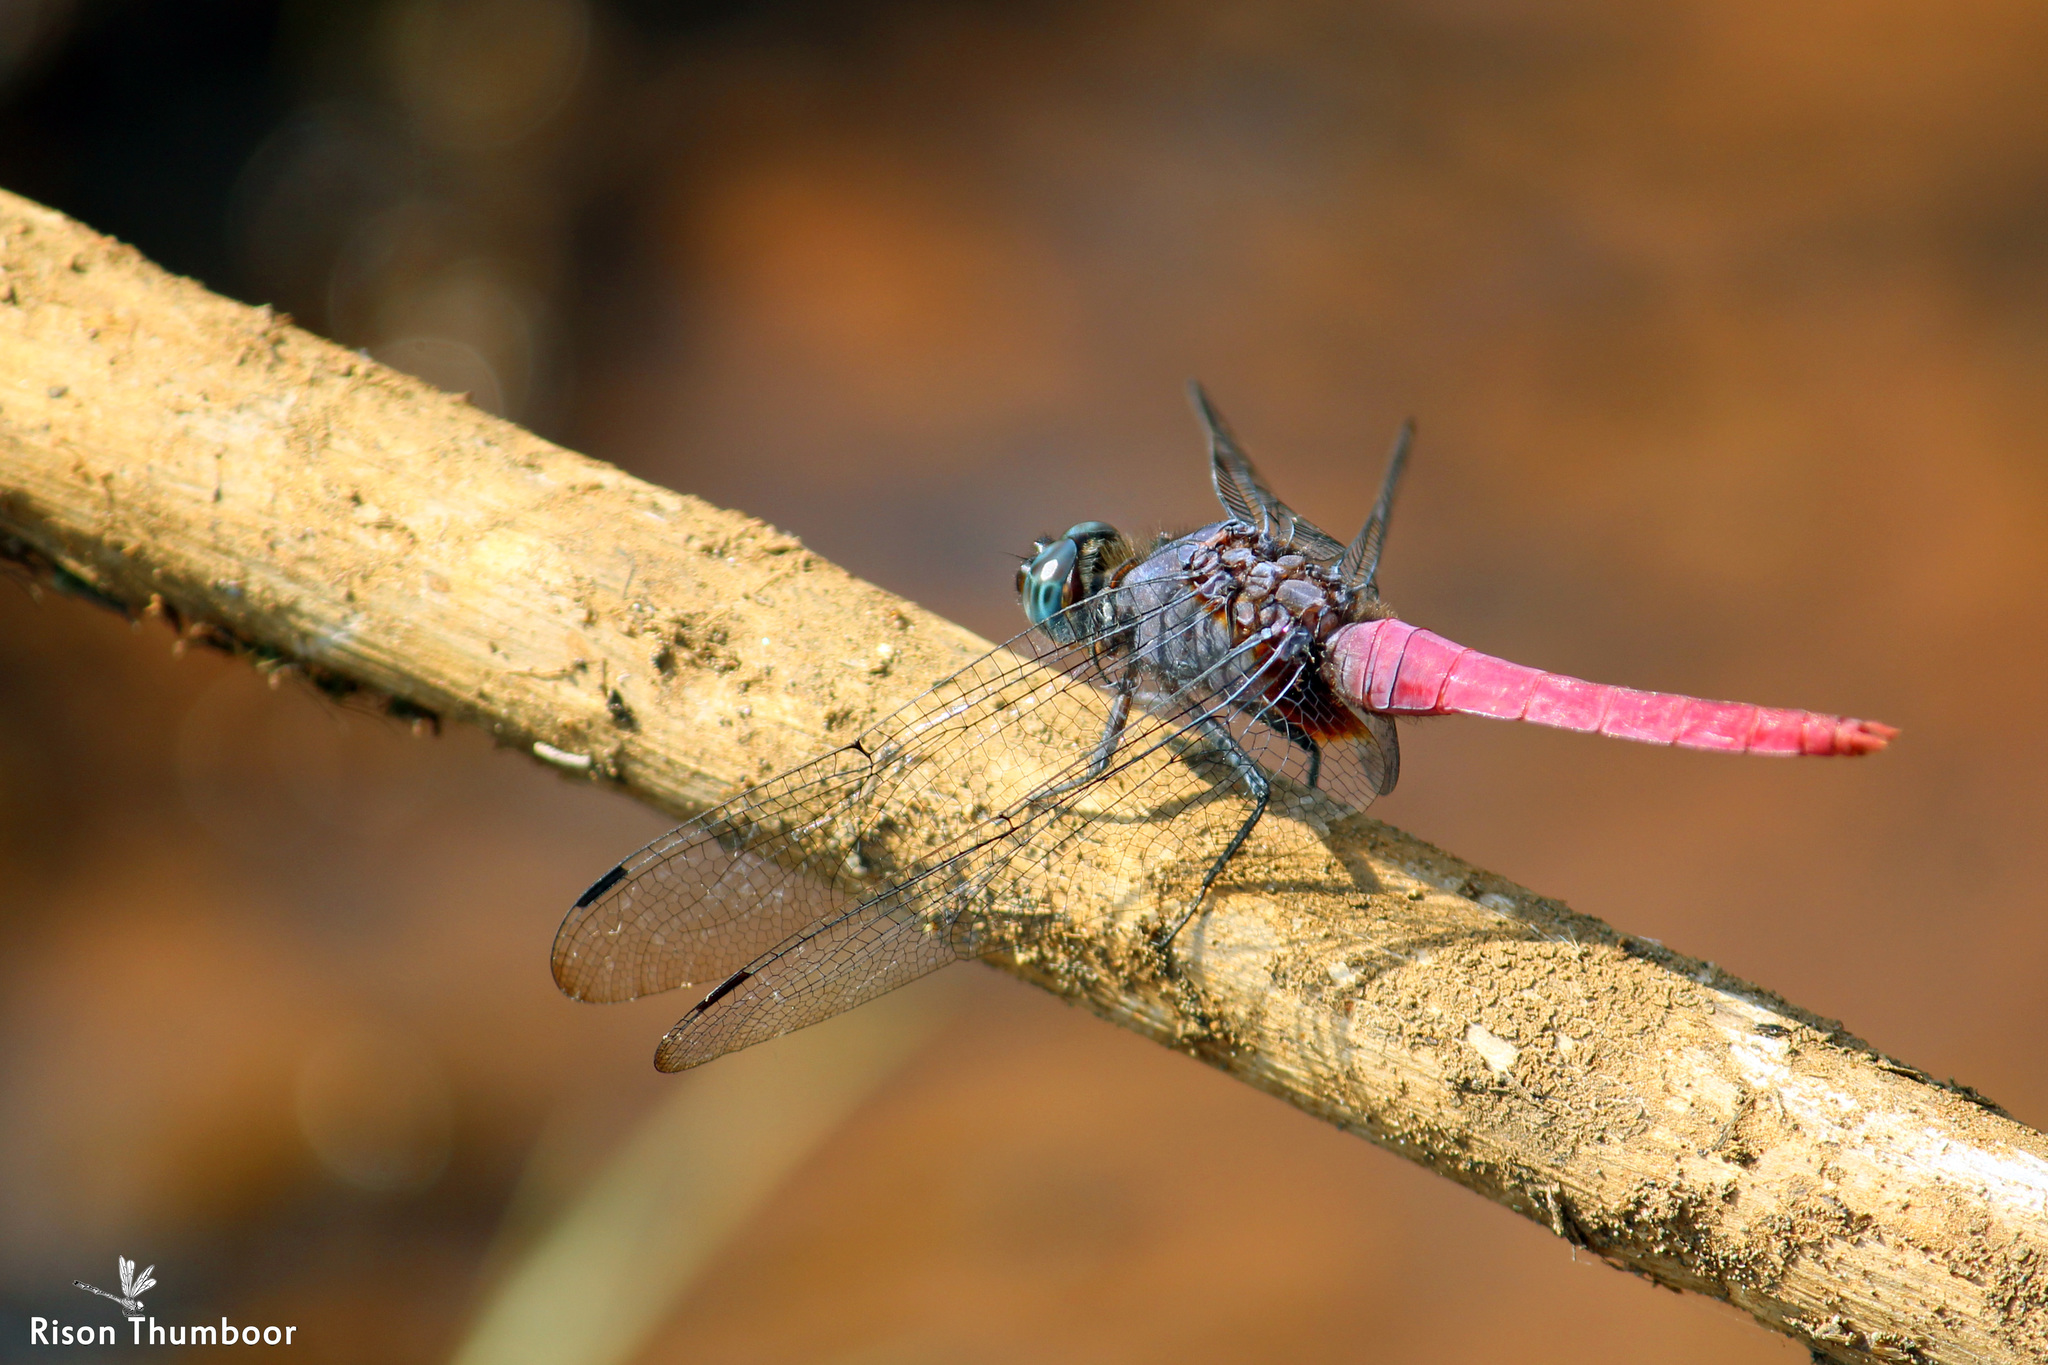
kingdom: Animalia
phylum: Arthropoda
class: Insecta
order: Odonata
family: Libellulidae
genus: Orthetrum
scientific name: Orthetrum pruinosum
